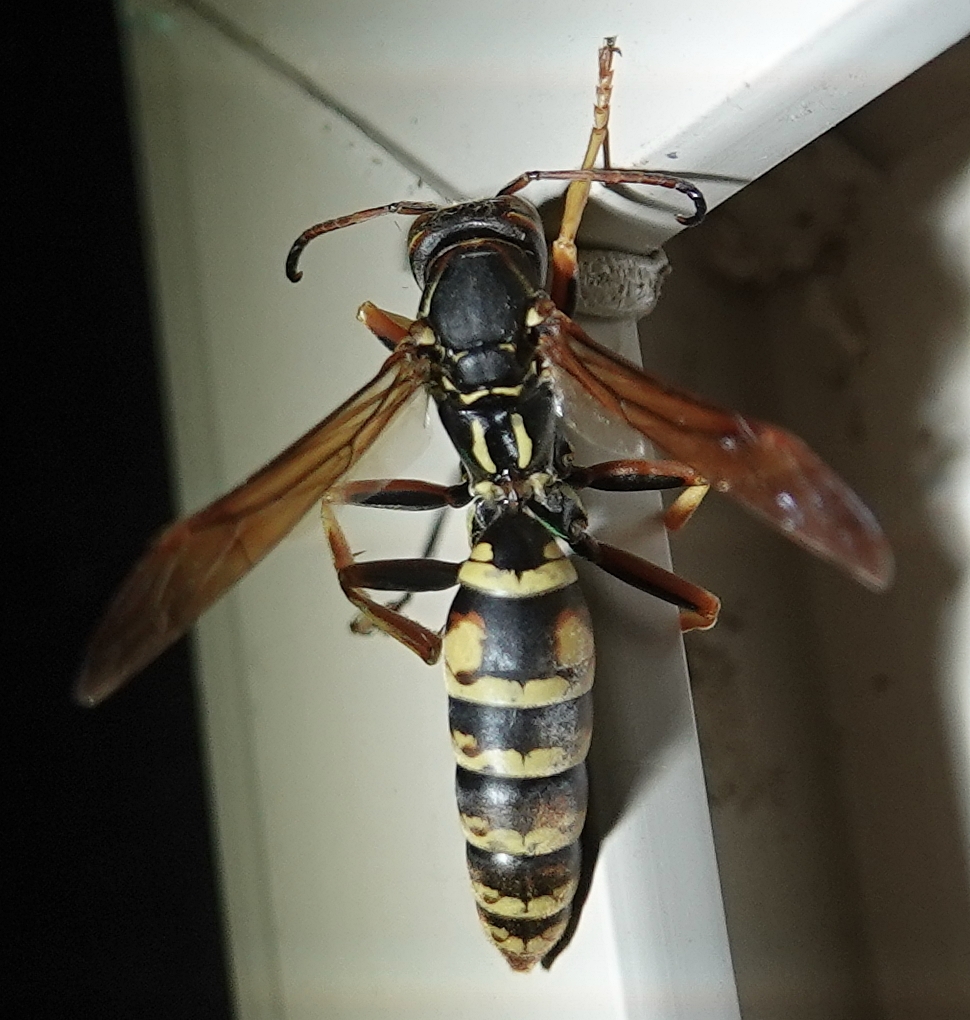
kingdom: Animalia
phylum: Arthropoda
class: Insecta
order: Hymenoptera
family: Eumenidae
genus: Polistes
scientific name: Polistes aurifer
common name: Paper wasp
